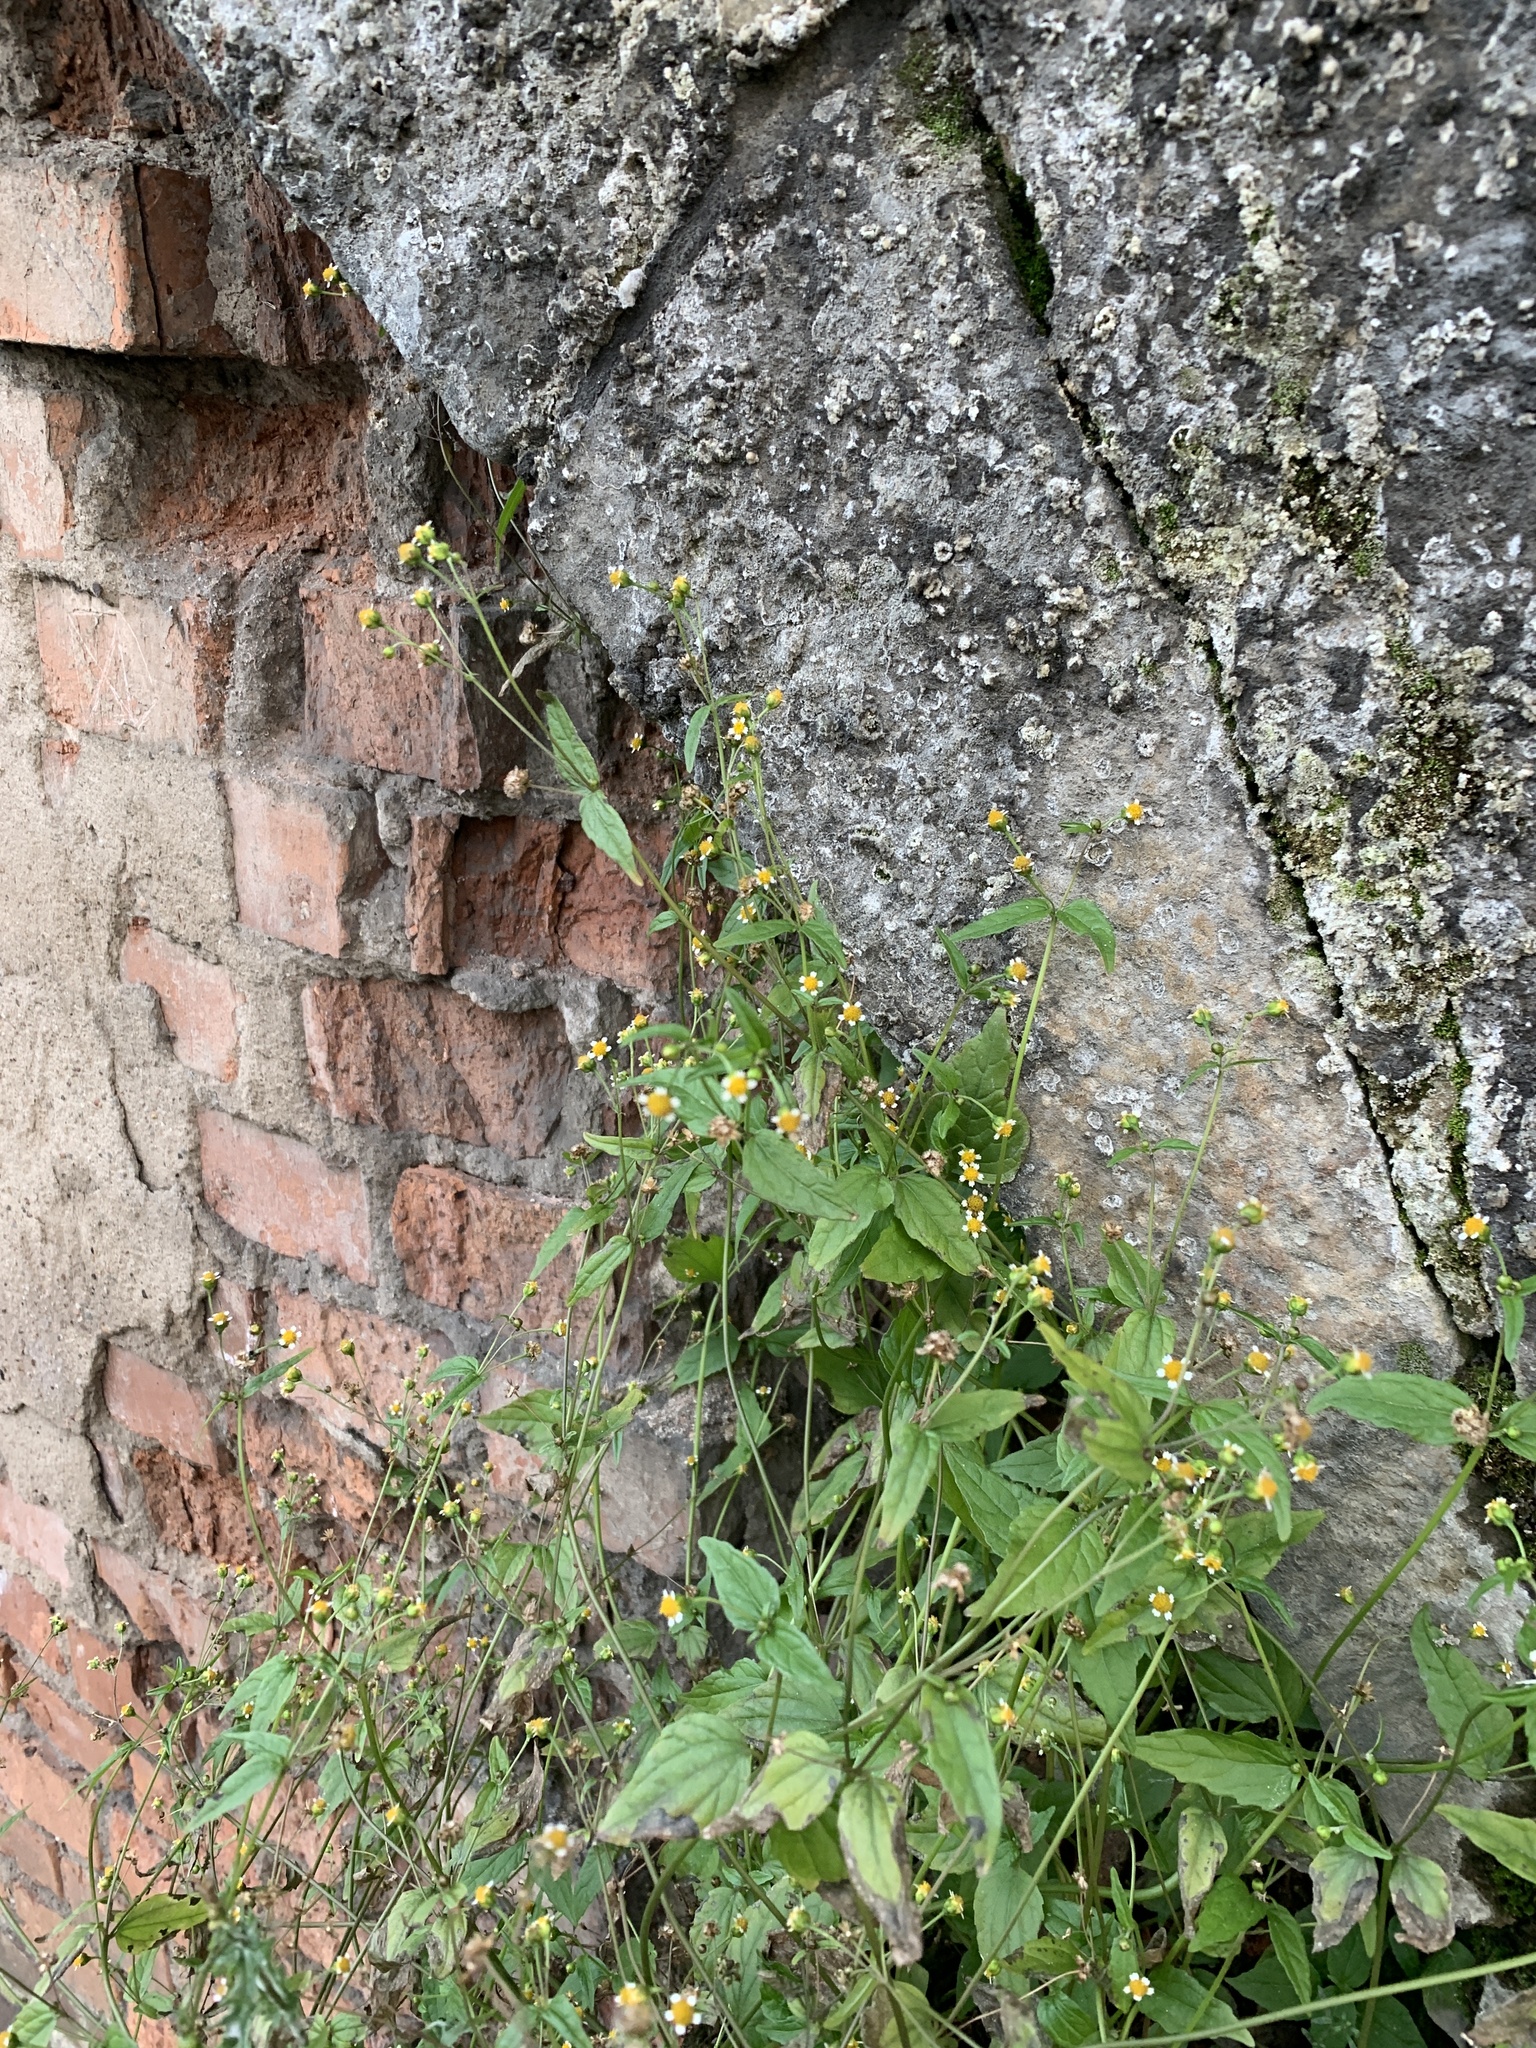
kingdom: Plantae
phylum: Tracheophyta
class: Magnoliopsida
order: Asterales
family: Asteraceae
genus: Galinsoga
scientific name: Galinsoga parviflora
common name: Gallant soldier
